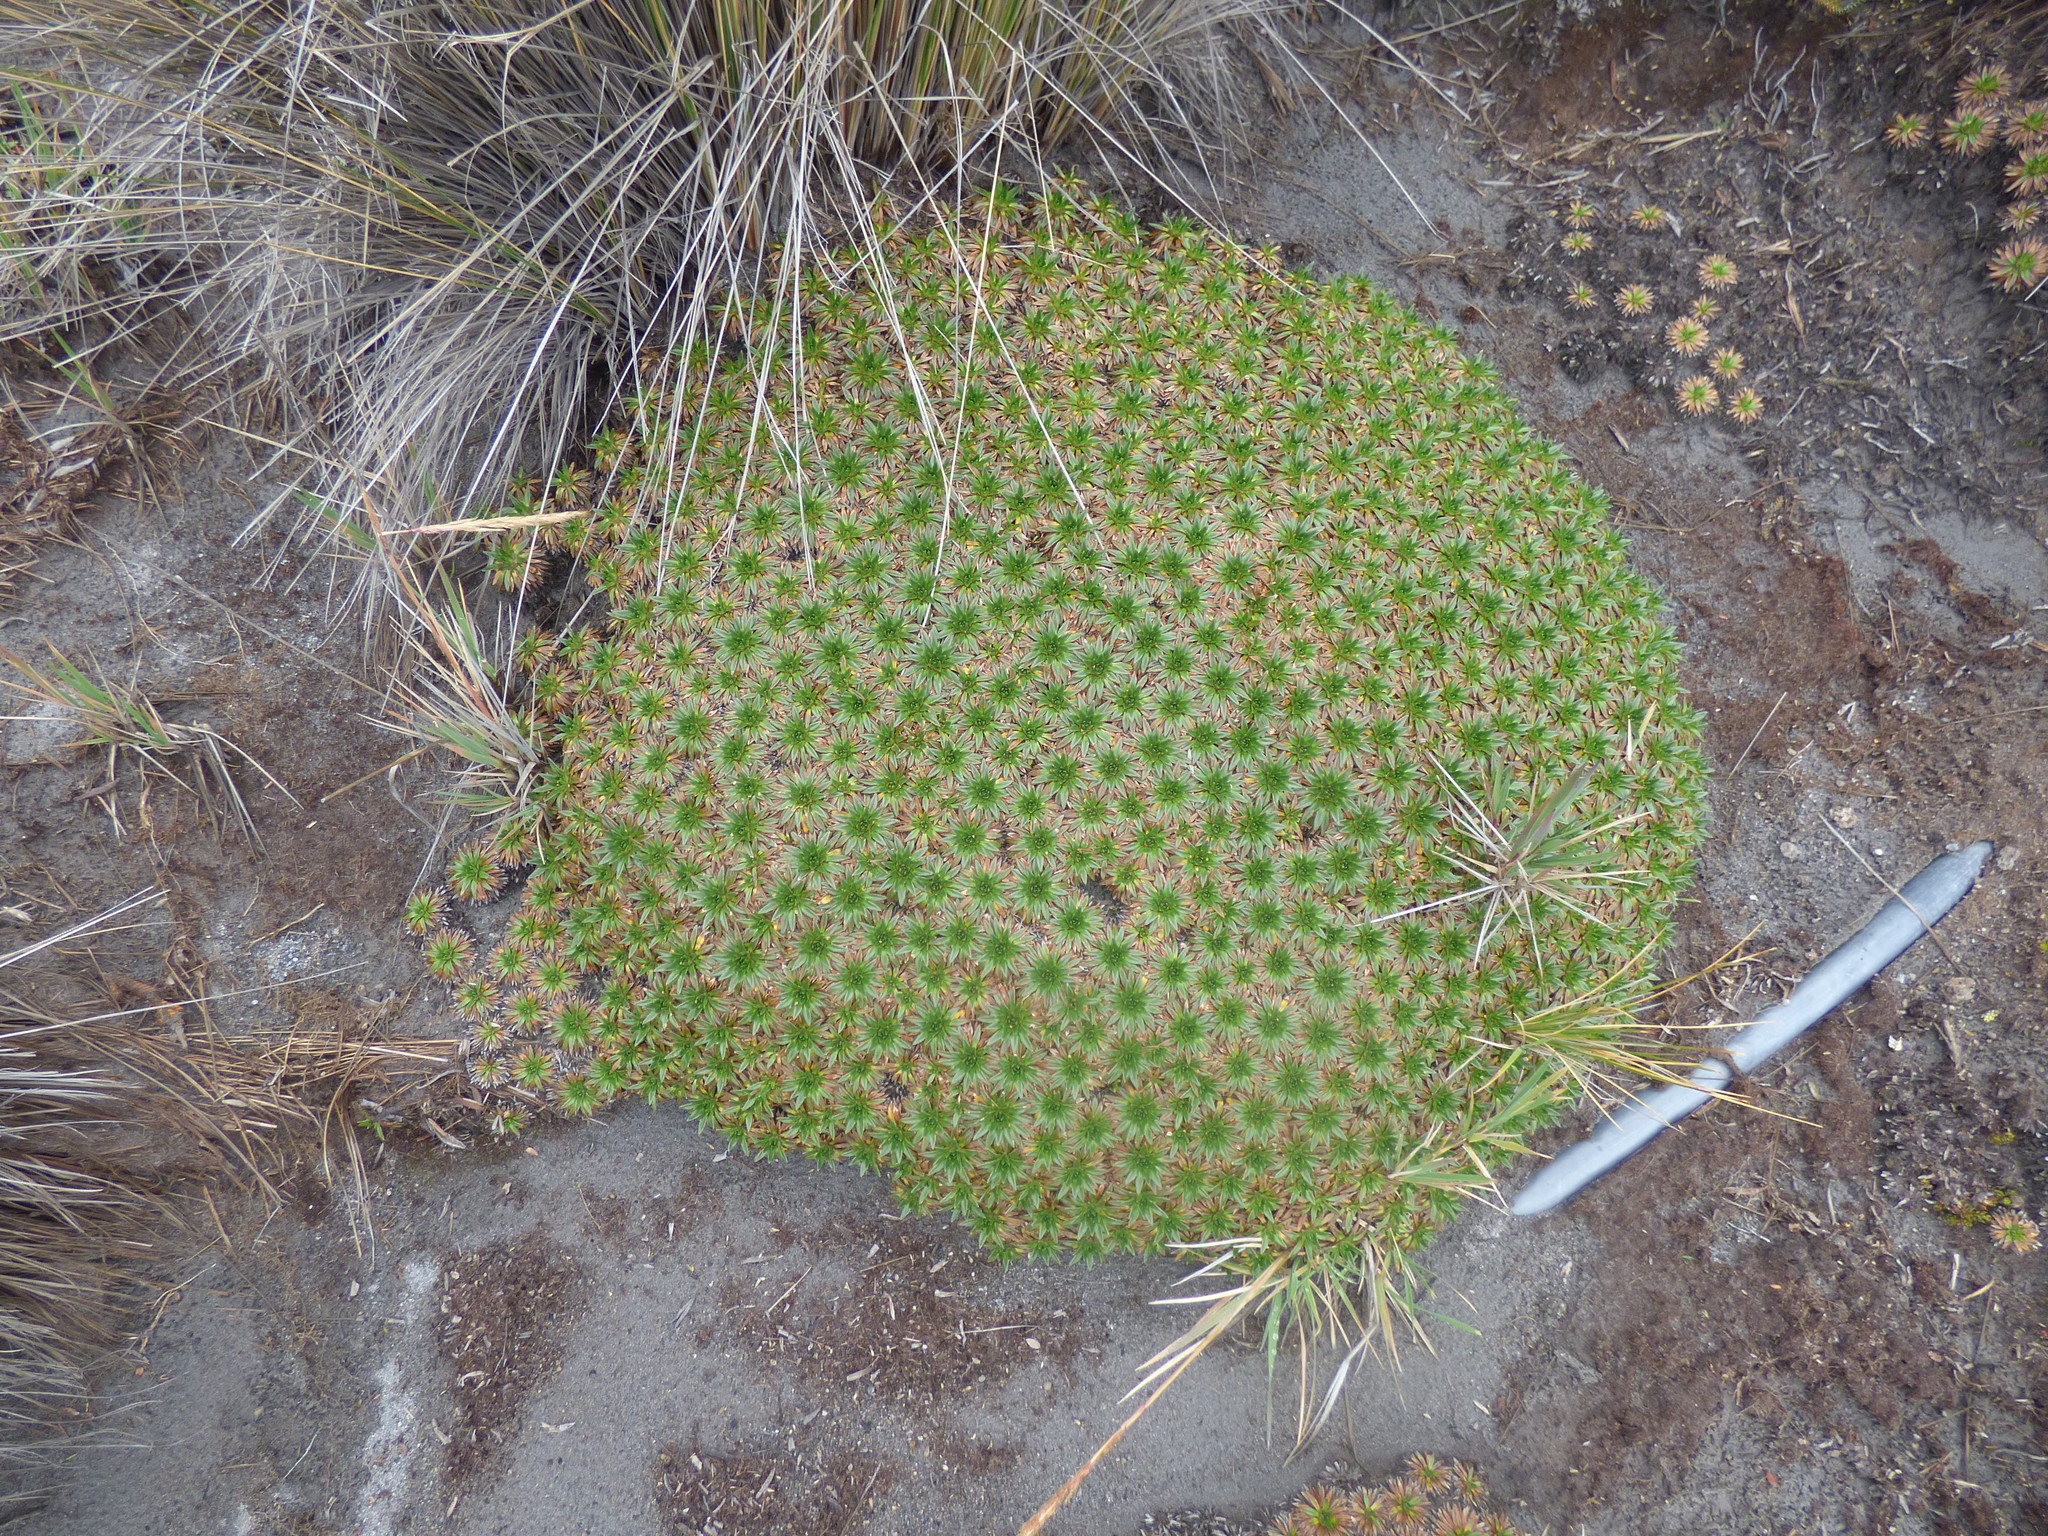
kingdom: Plantae
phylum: Tracheophyta
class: Magnoliopsida
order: Lamiales
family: Plantaginaceae
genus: Plantago
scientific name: Plantago rigida
